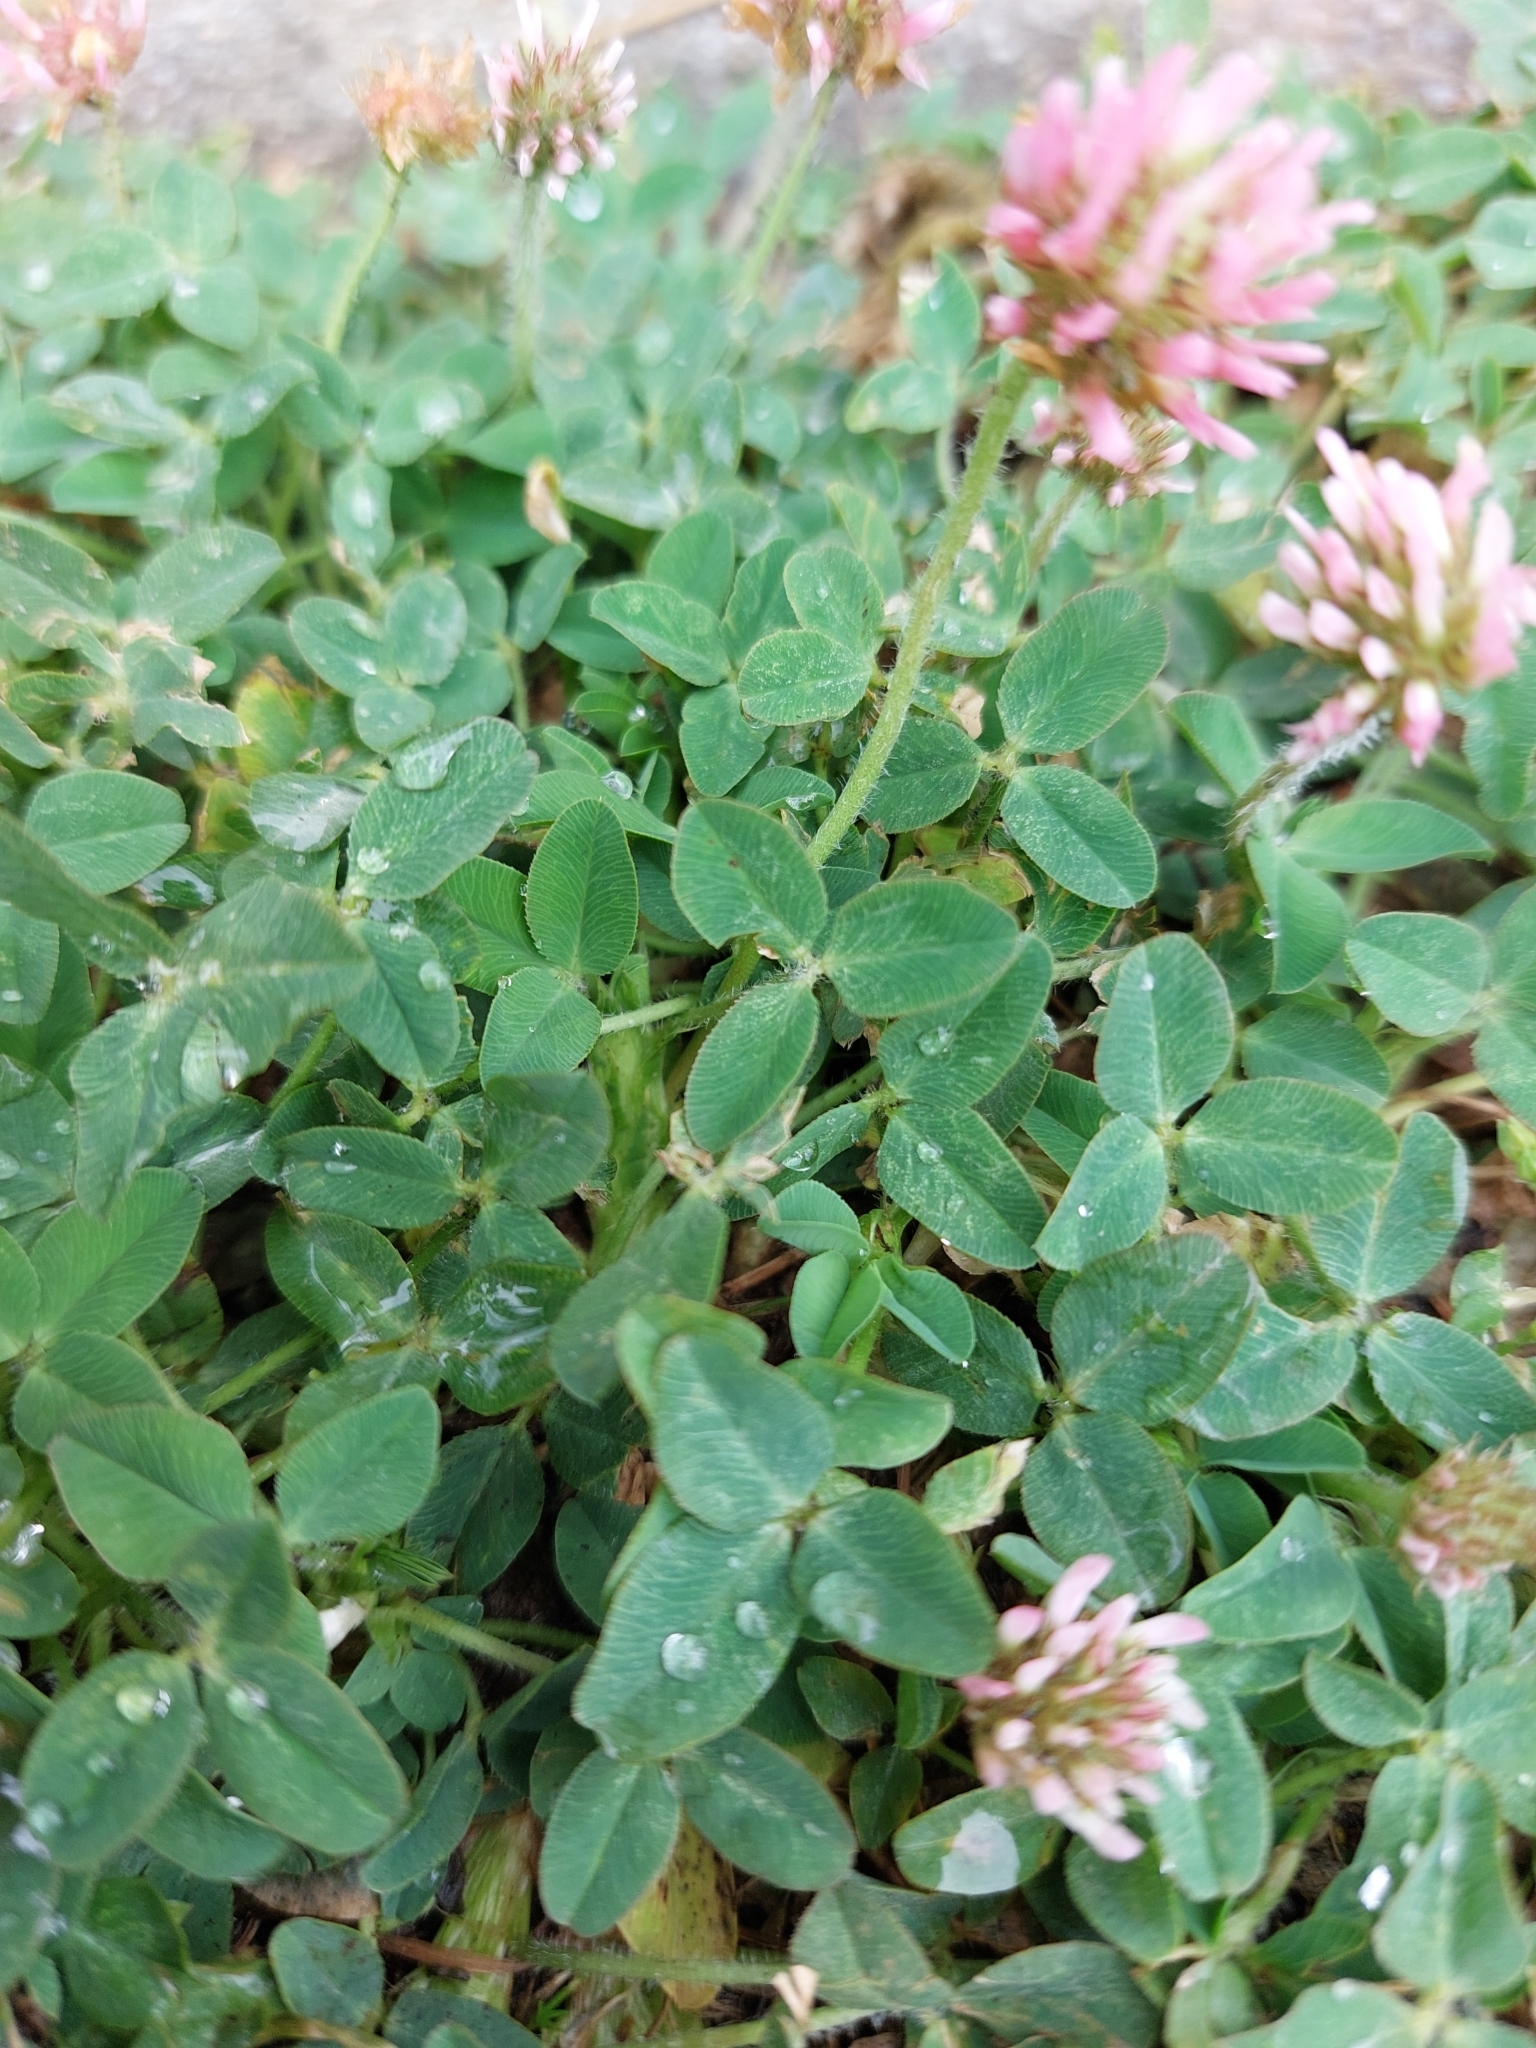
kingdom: Plantae
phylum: Tracheophyta
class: Magnoliopsida
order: Fabales
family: Fabaceae
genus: Trifolium
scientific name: Trifolium fragiferum
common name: Strawberry clover
